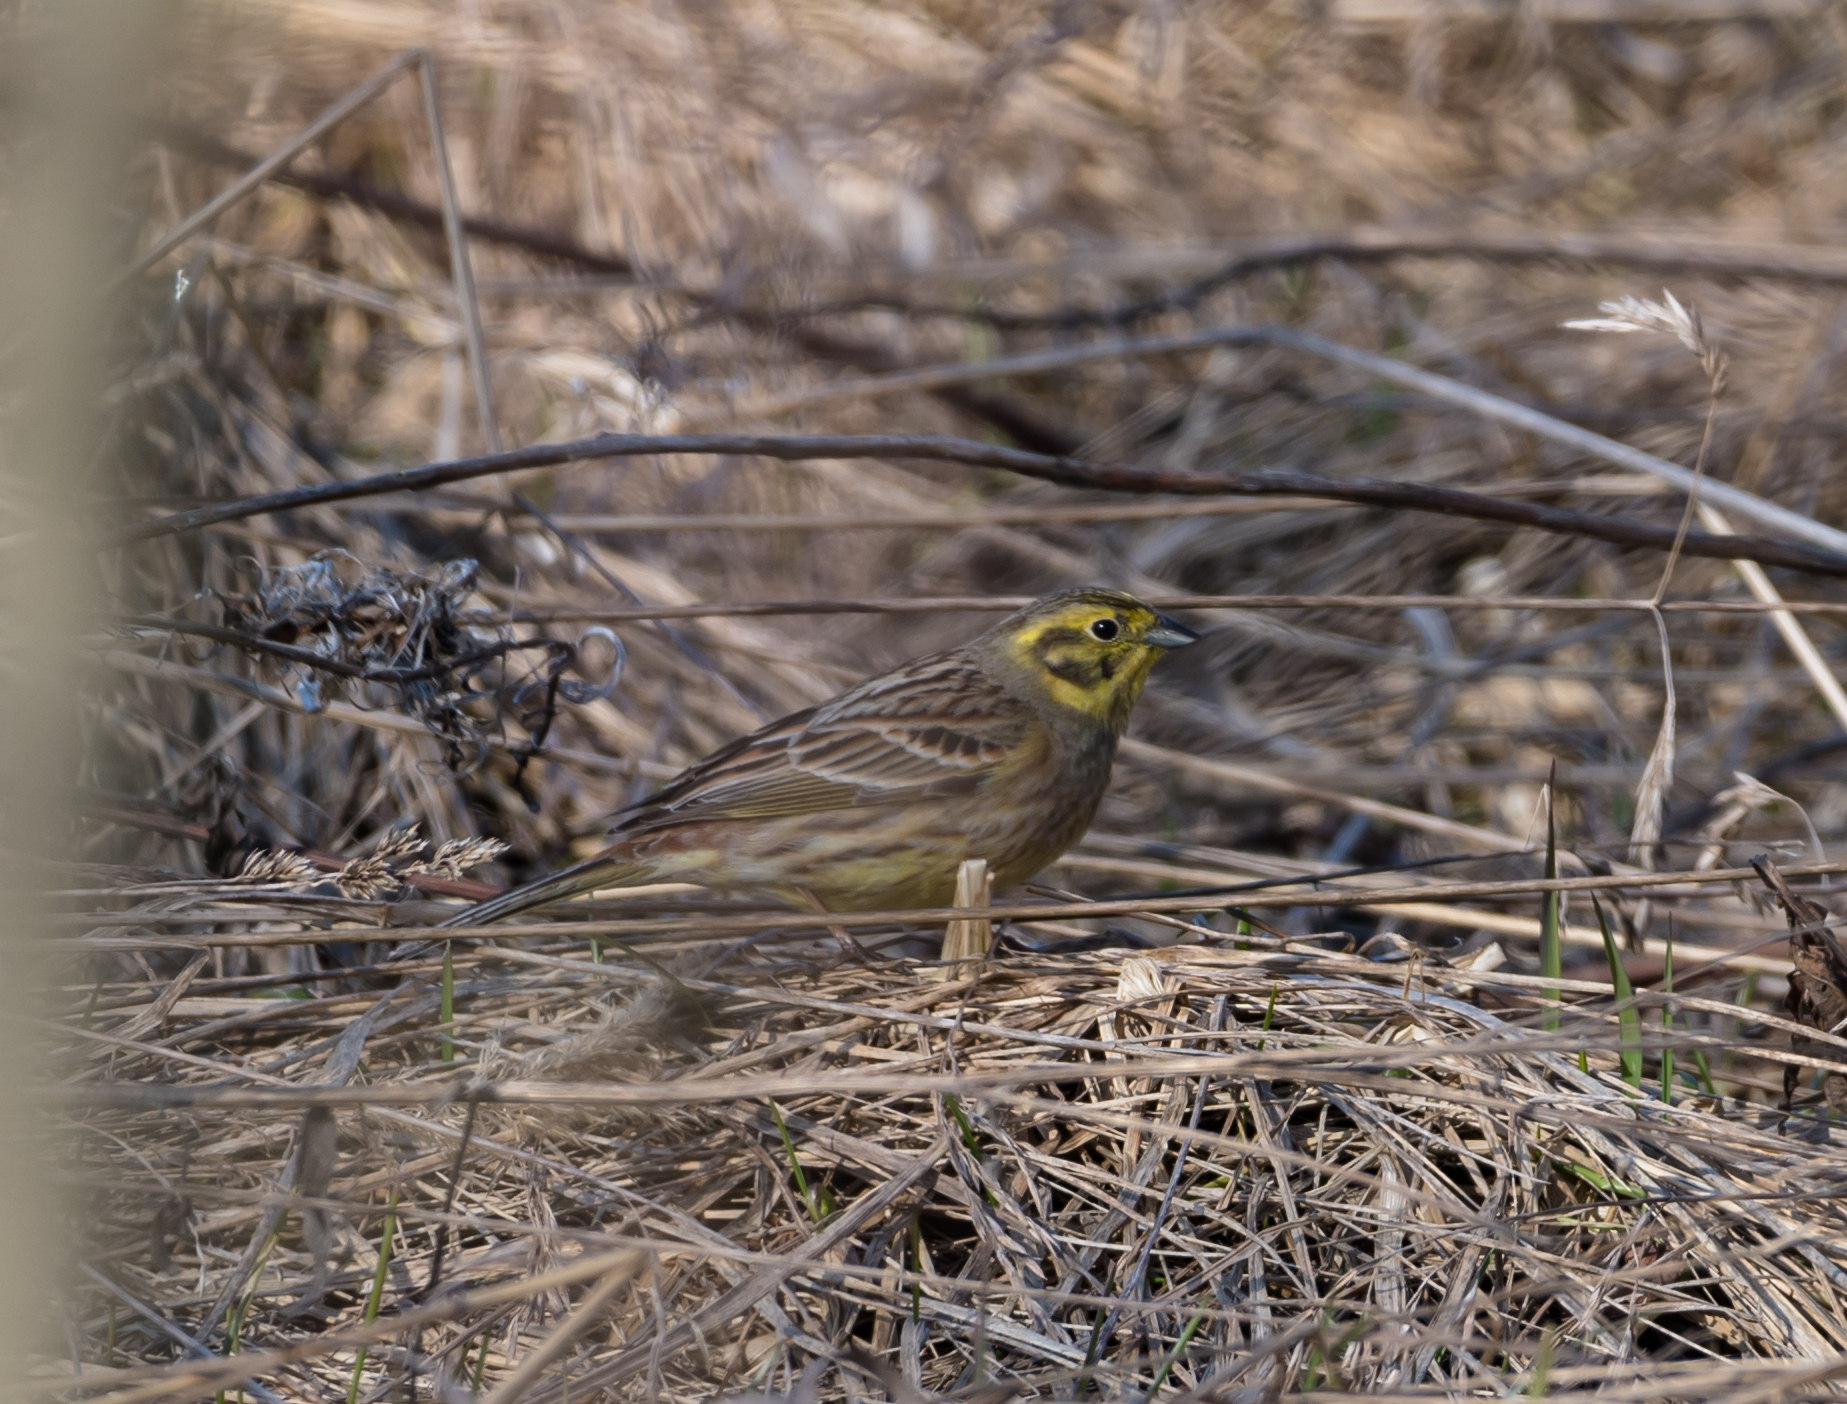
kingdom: Animalia
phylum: Chordata
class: Aves
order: Passeriformes
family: Emberizidae
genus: Emberiza
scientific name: Emberiza citrinella
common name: Yellowhammer
